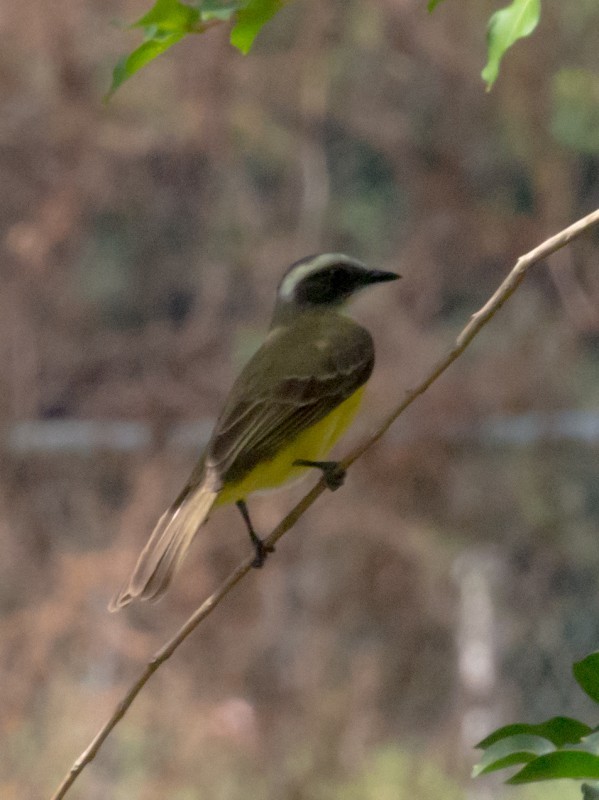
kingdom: Animalia
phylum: Chordata
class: Aves
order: Passeriformes
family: Tyrannidae
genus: Myiozetetes
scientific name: Myiozetetes similis
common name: Social flycatcher
